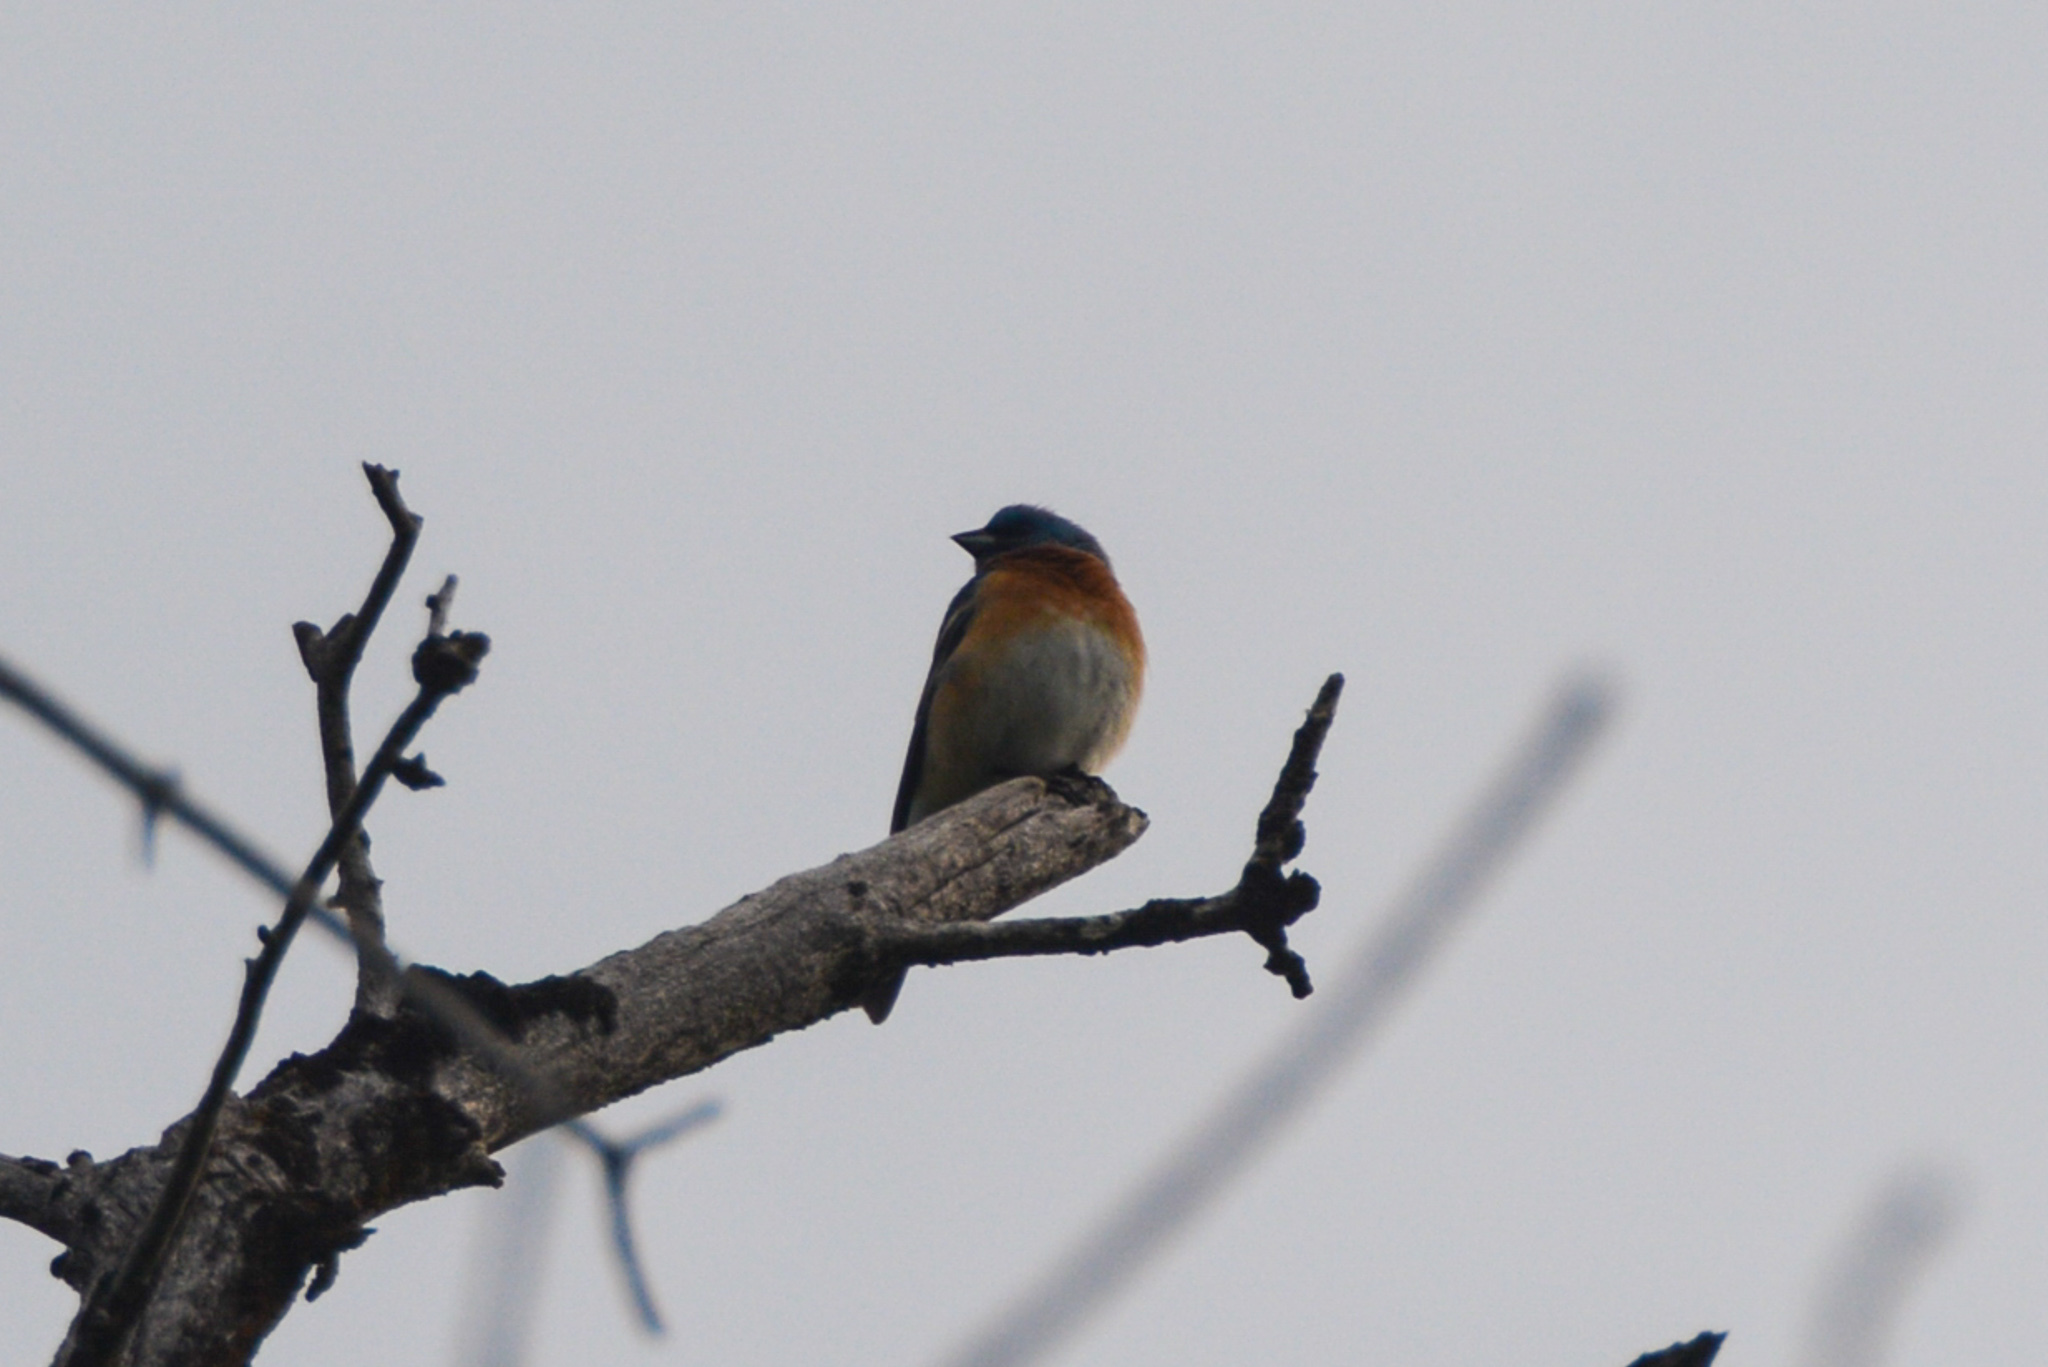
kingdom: Animalia
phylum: Chordata
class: Aves
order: Passeriformes
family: Cardinalidae
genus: Passerina
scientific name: Passerina amoena
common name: Lazuli bunting
